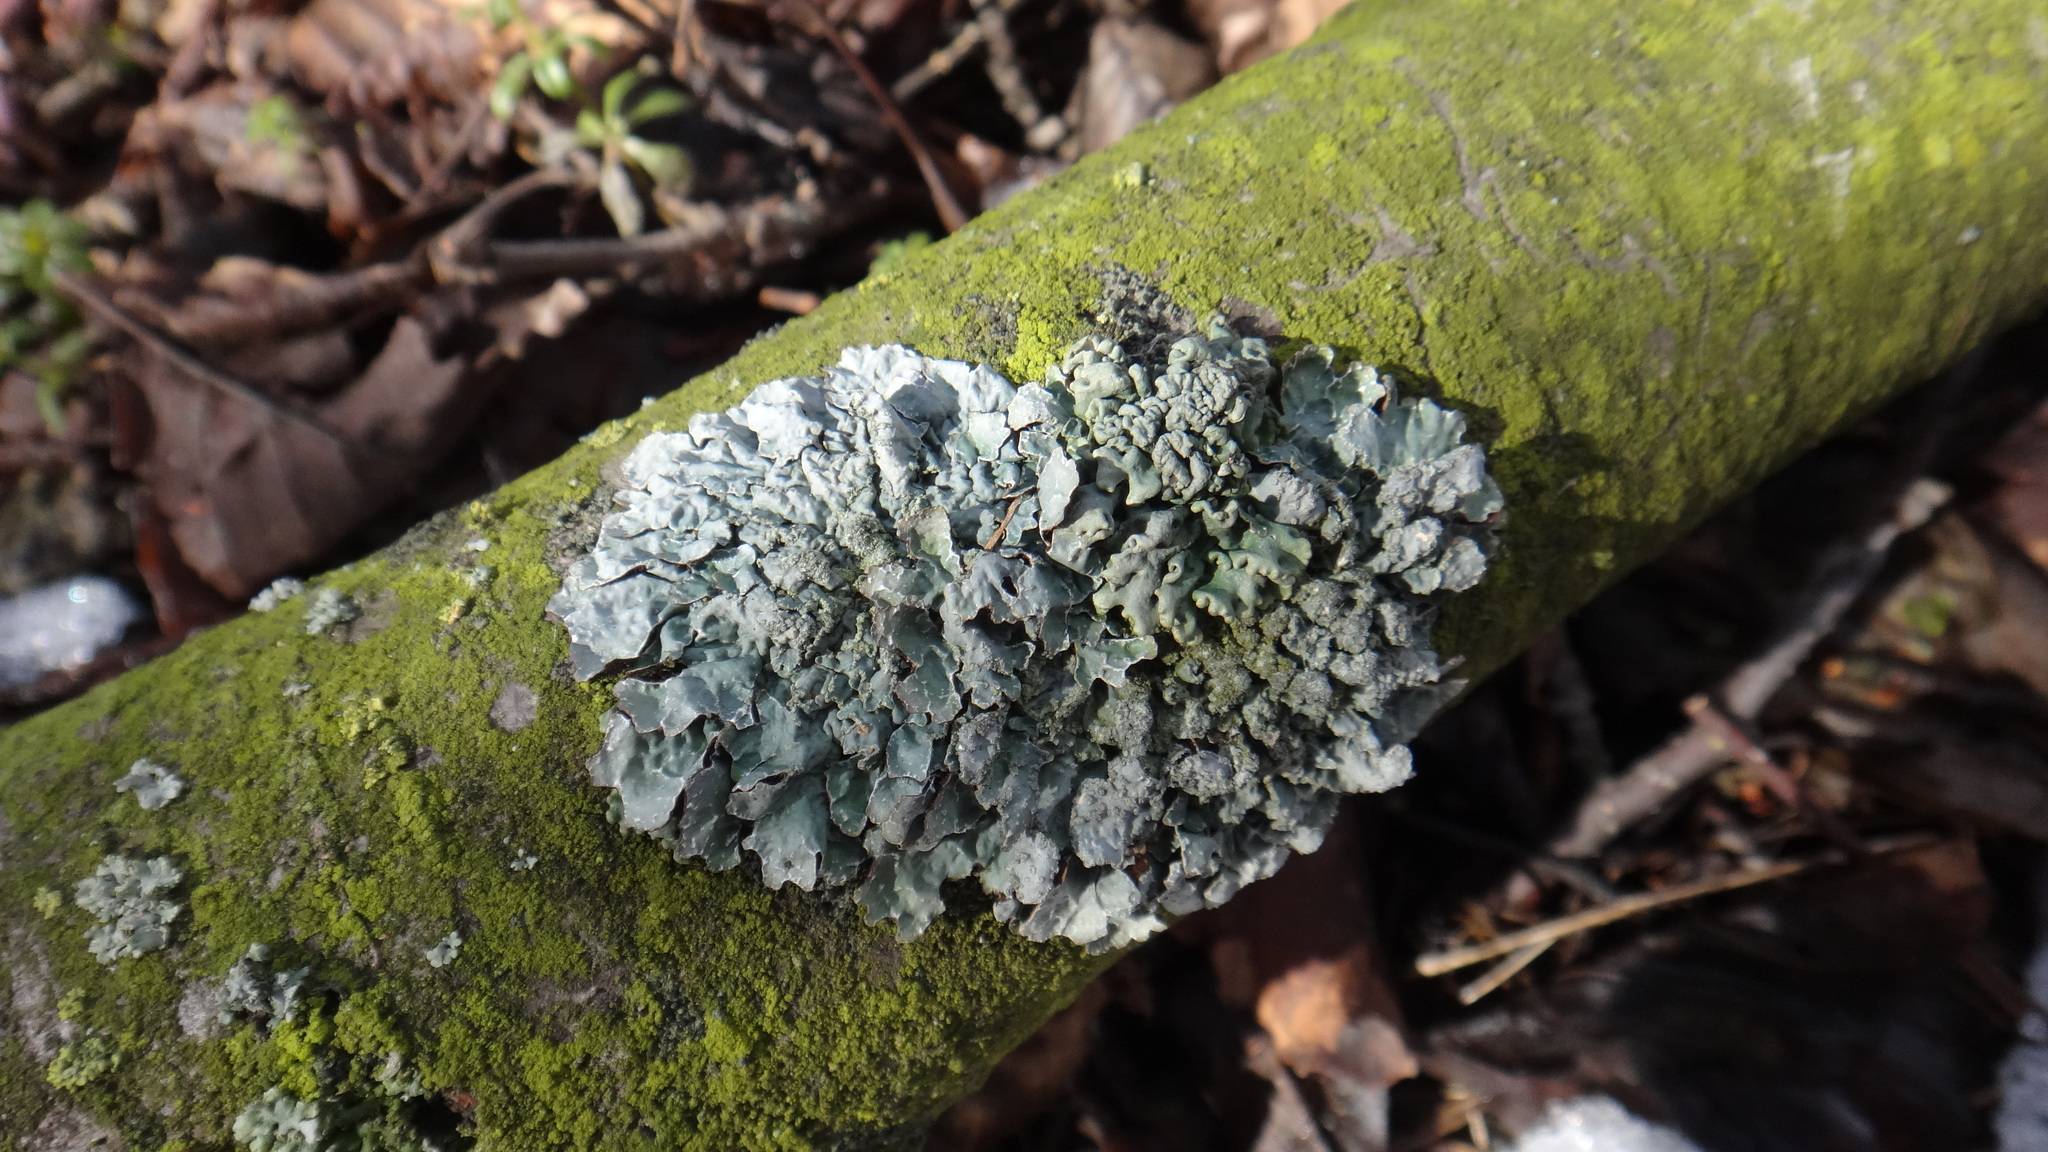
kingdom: Fungi
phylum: Ascomycota
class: Lecanoromycetes
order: Lecanorales
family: Parmeliaceae
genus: Parmelia
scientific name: Parmelia sulcata
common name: Netted shield lichen
